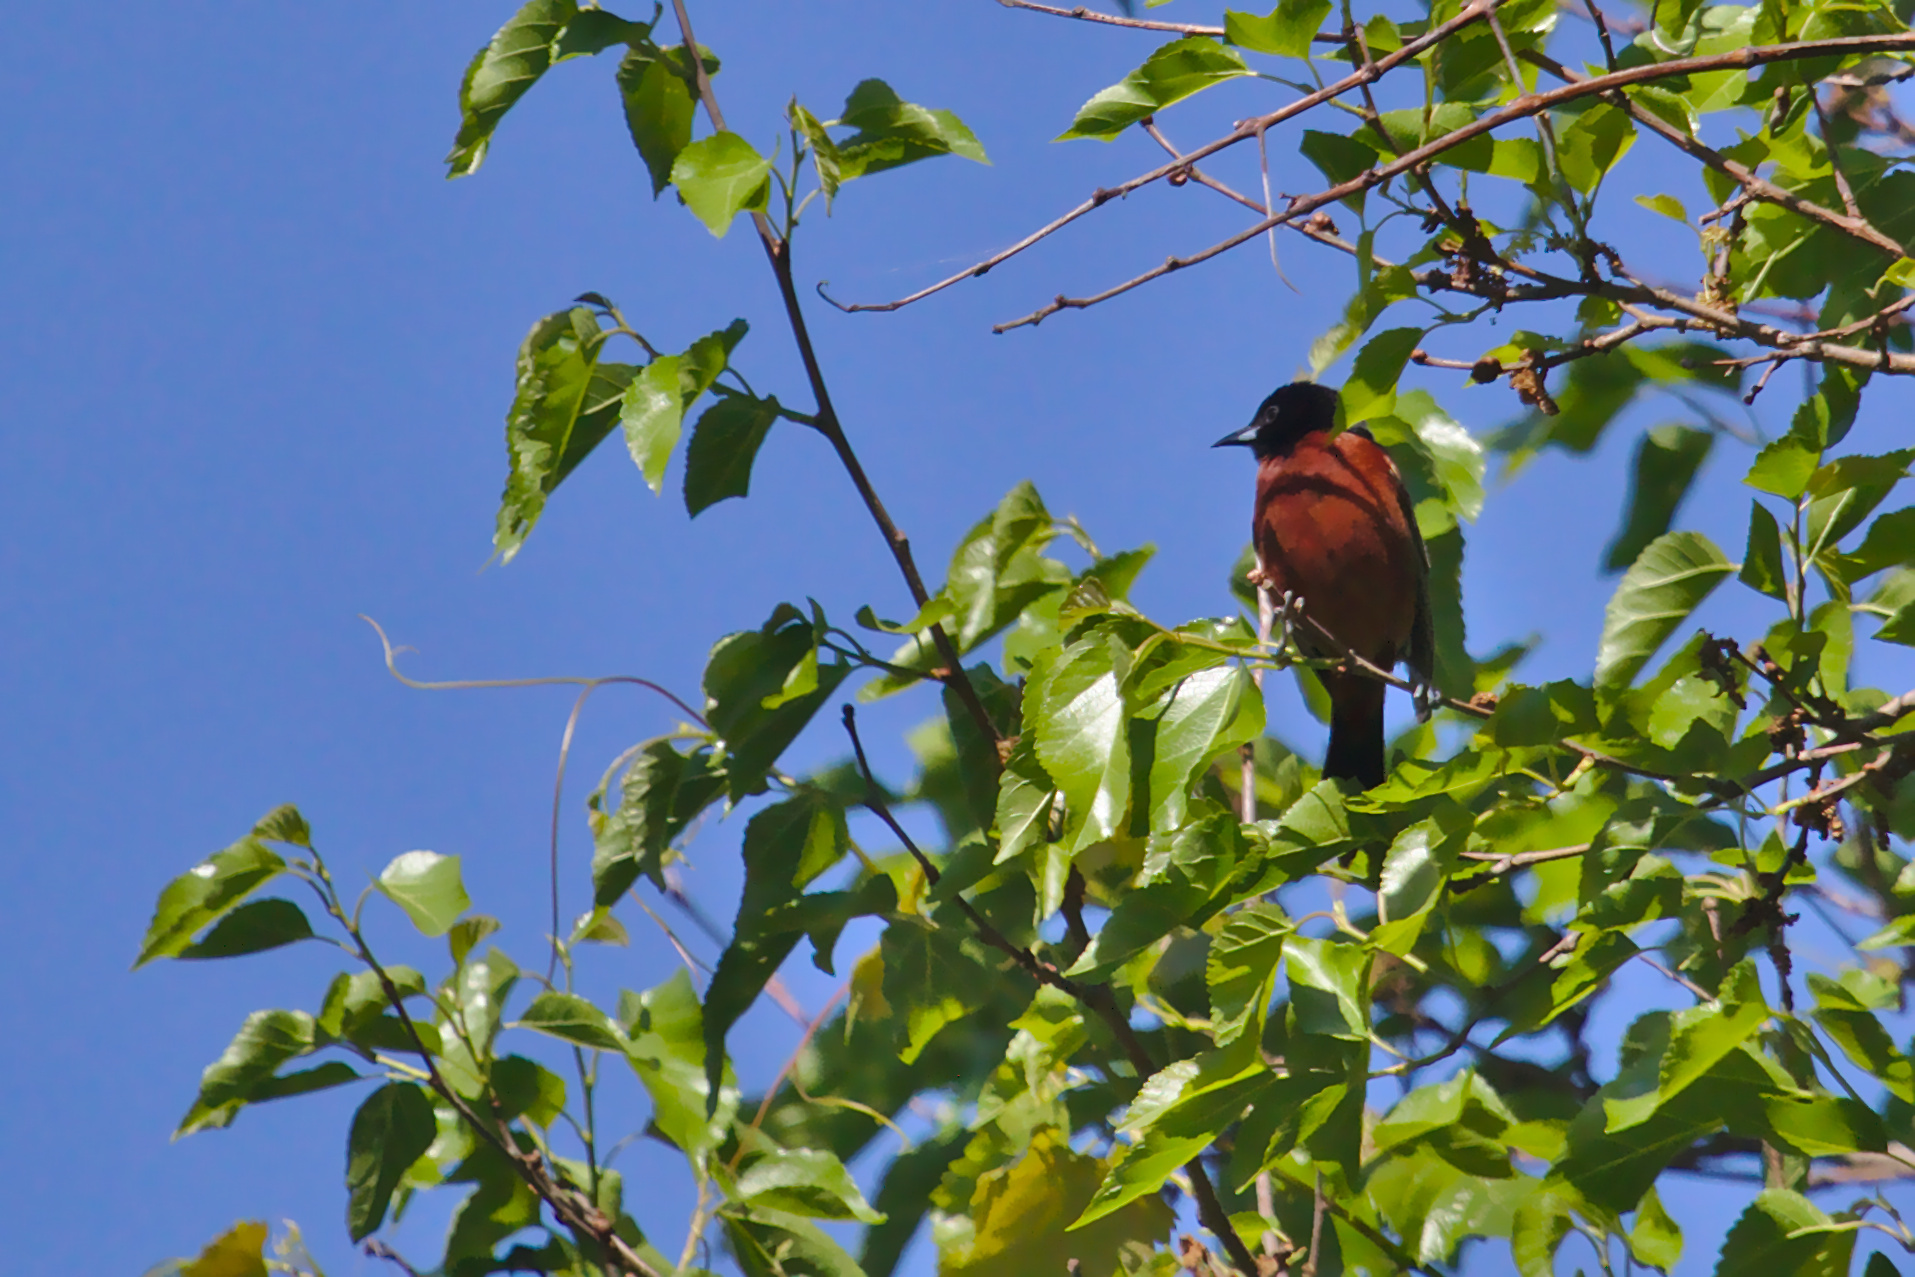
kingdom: Animalia
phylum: Chordata
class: Aves
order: Passeriformes
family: Icteridae
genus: Icterus
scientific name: Icterus spurius
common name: Orchard oriole
